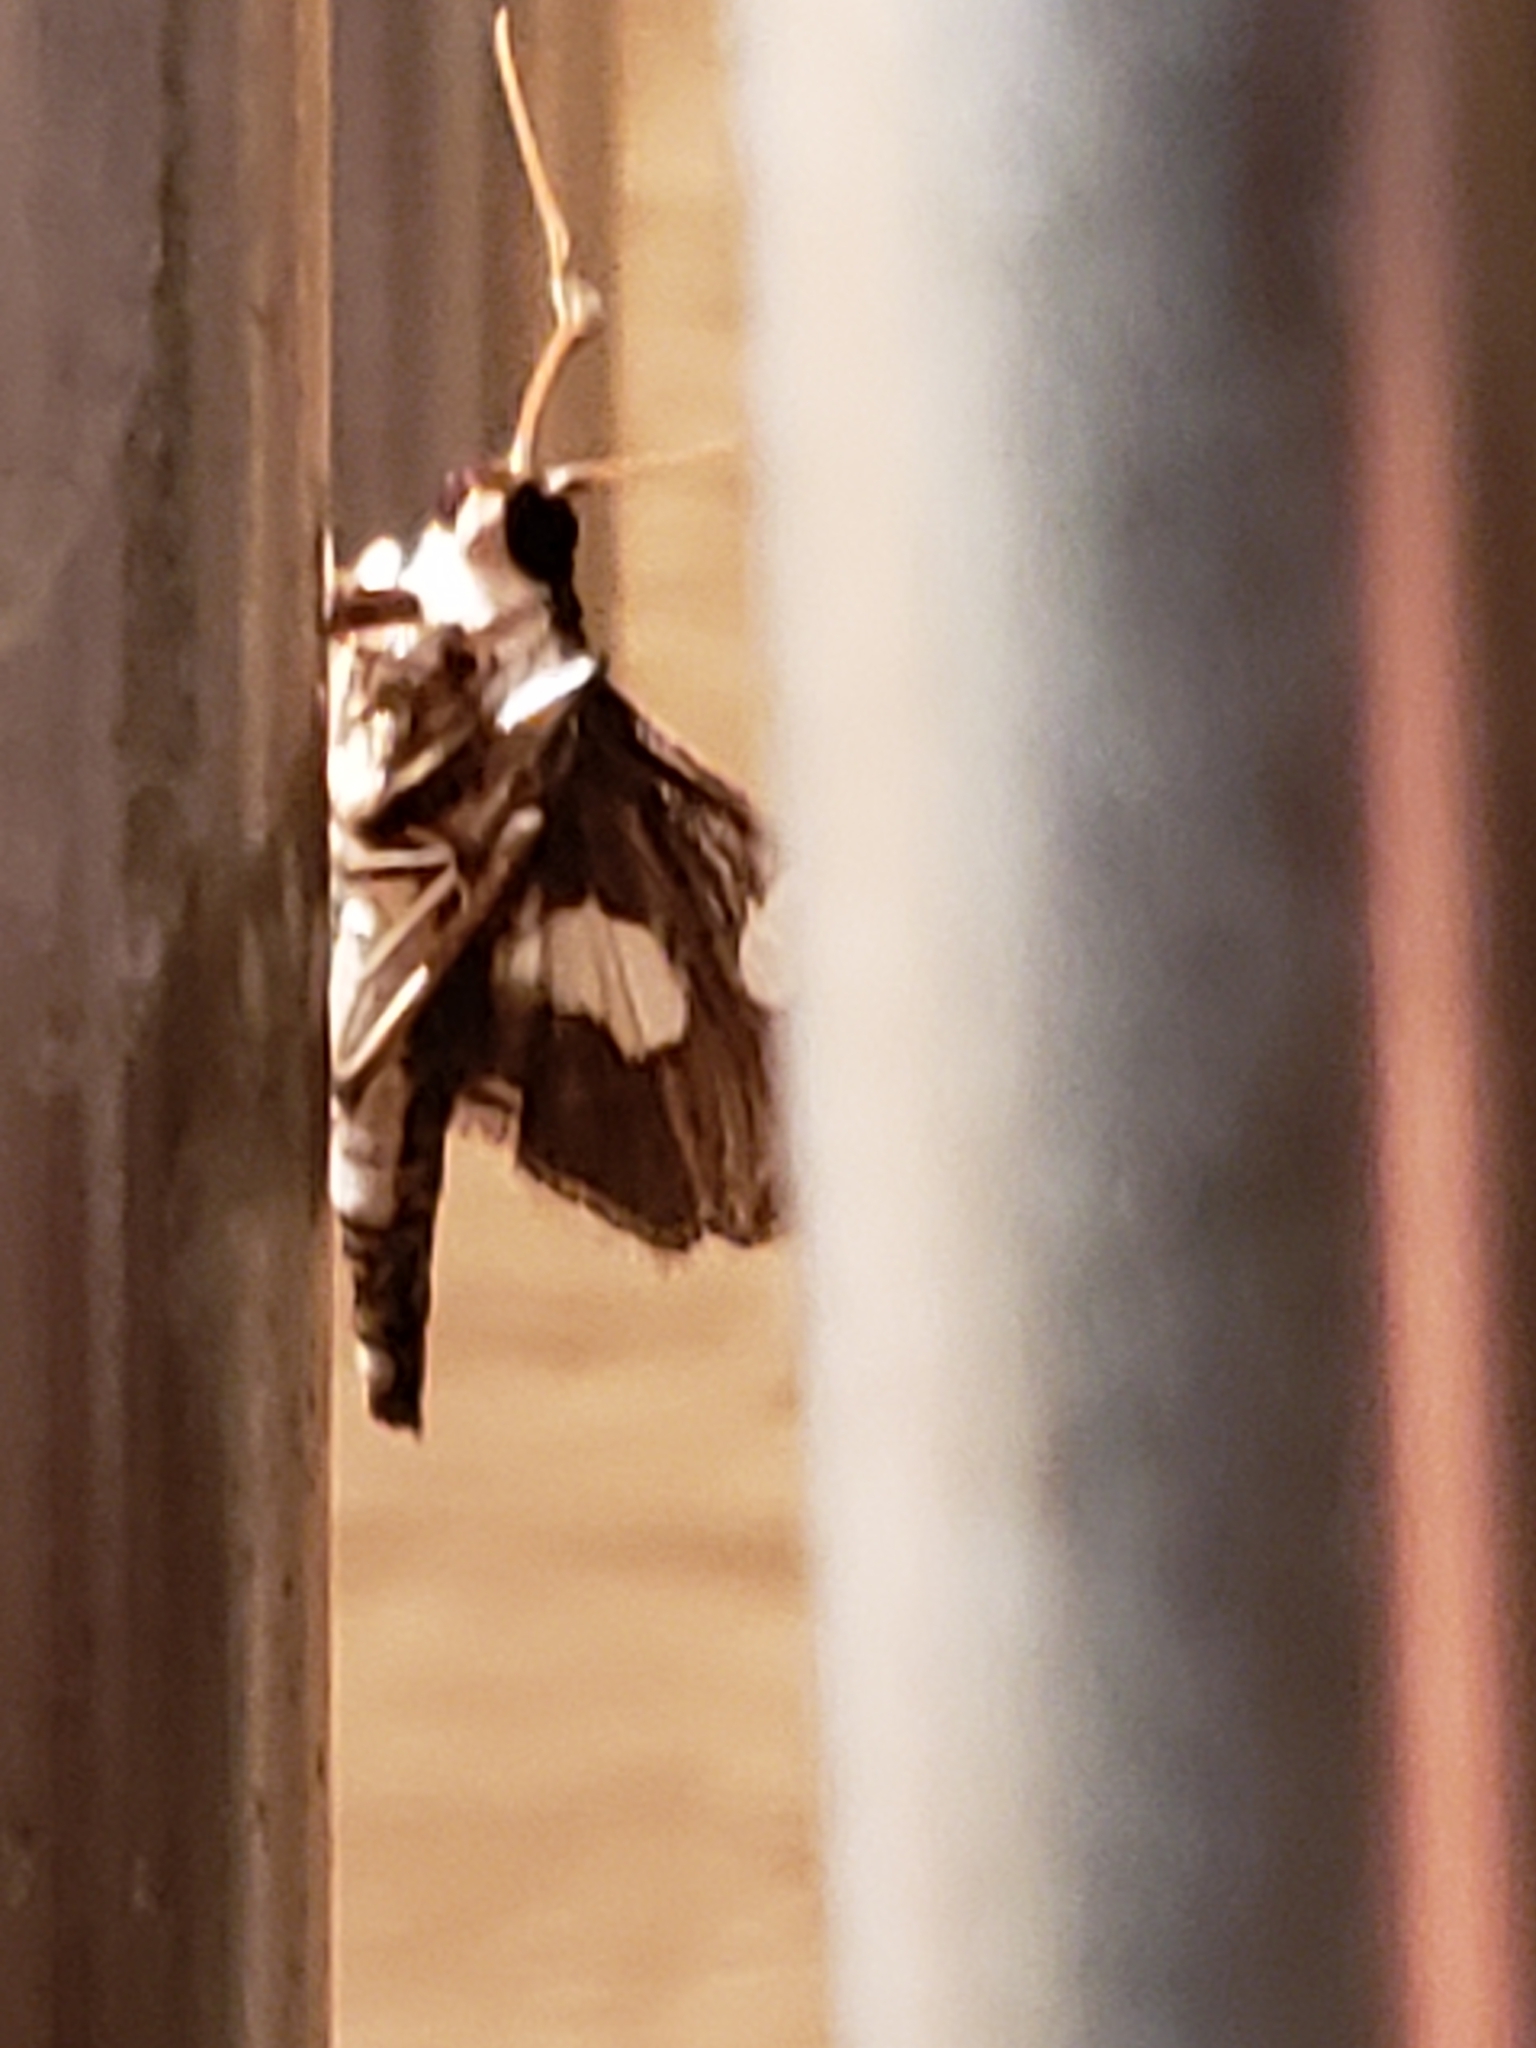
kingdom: Animalia
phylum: Arthropoda
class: Insecta
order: Lepidoptera
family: Crambidae
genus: Desmia
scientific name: Desmia funeralis
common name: Grape leaf folder moth
